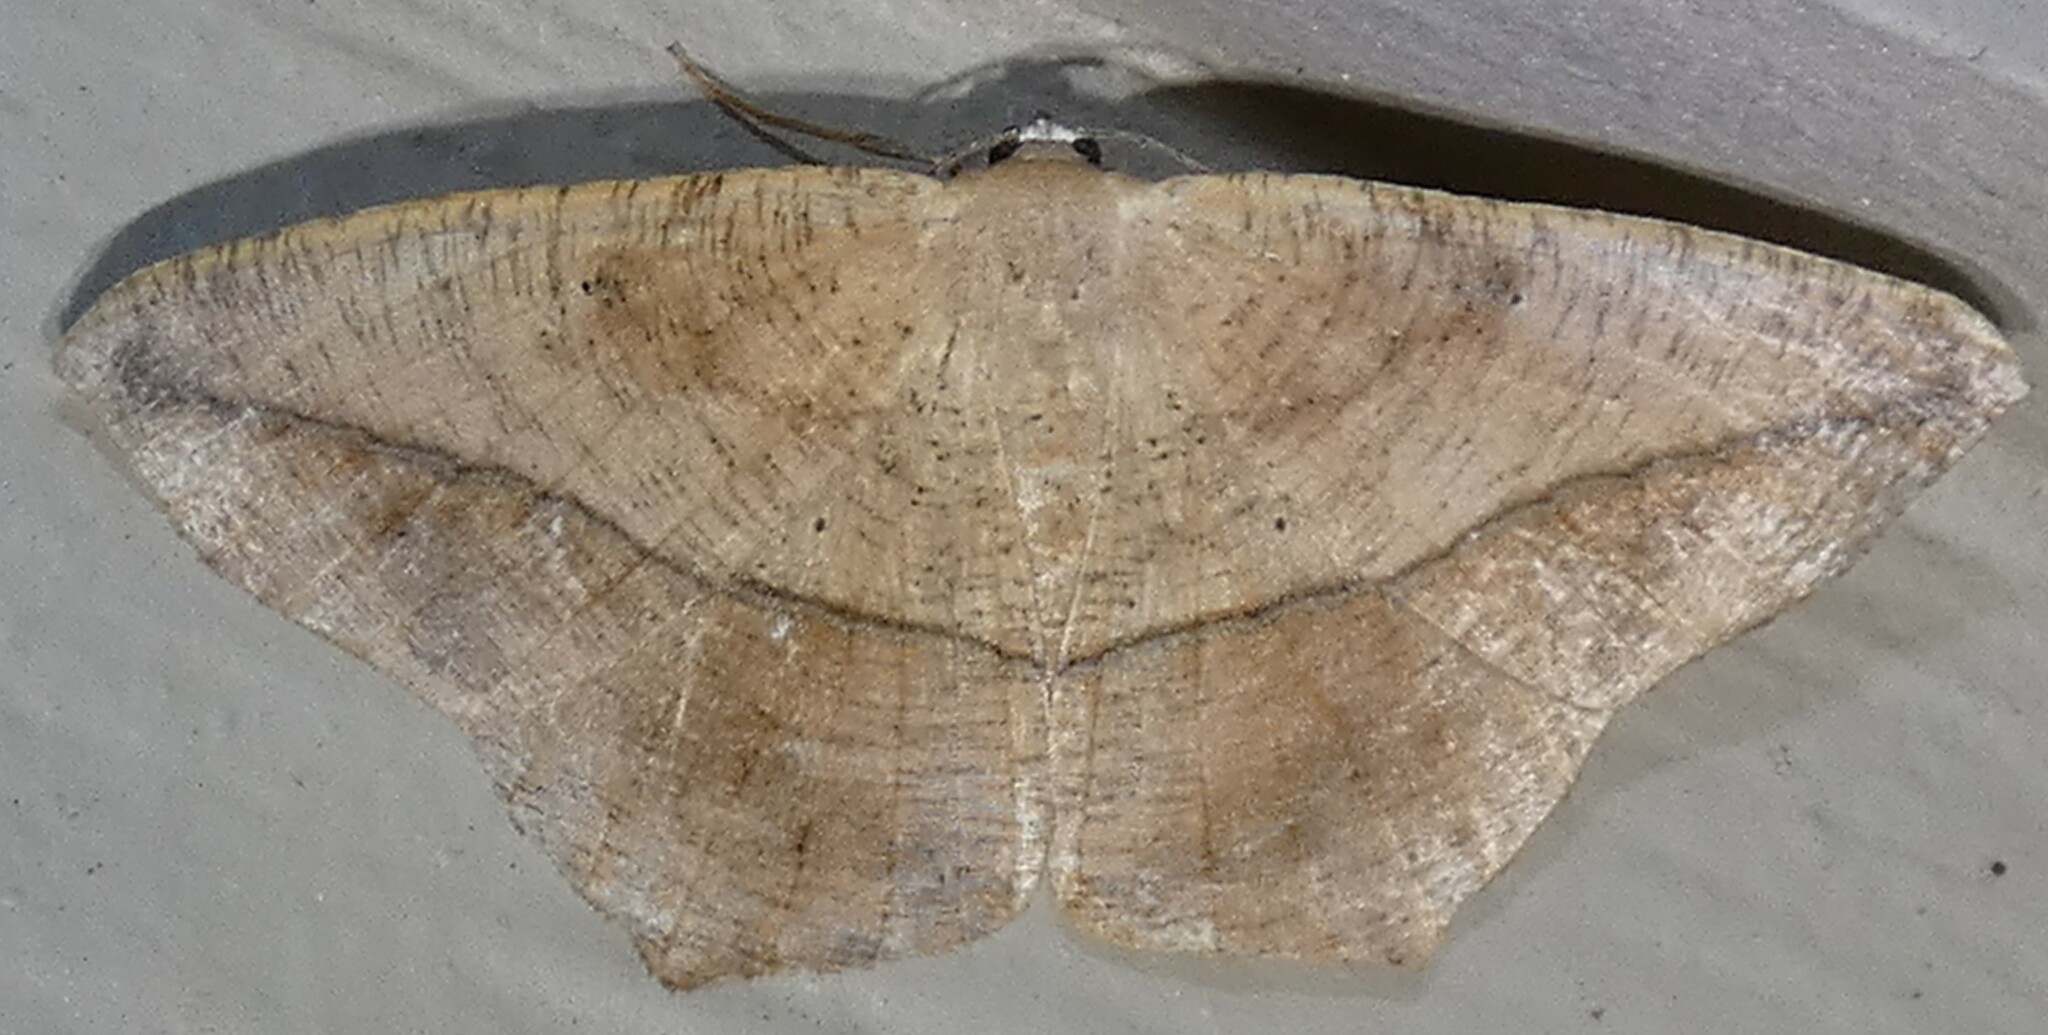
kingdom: Animalia
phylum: Arthropoda
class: Insecta
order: Lepidoptera
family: Geometridae
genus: Prochoerodes
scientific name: Prochoerodes lineola
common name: Large maple spanworm
